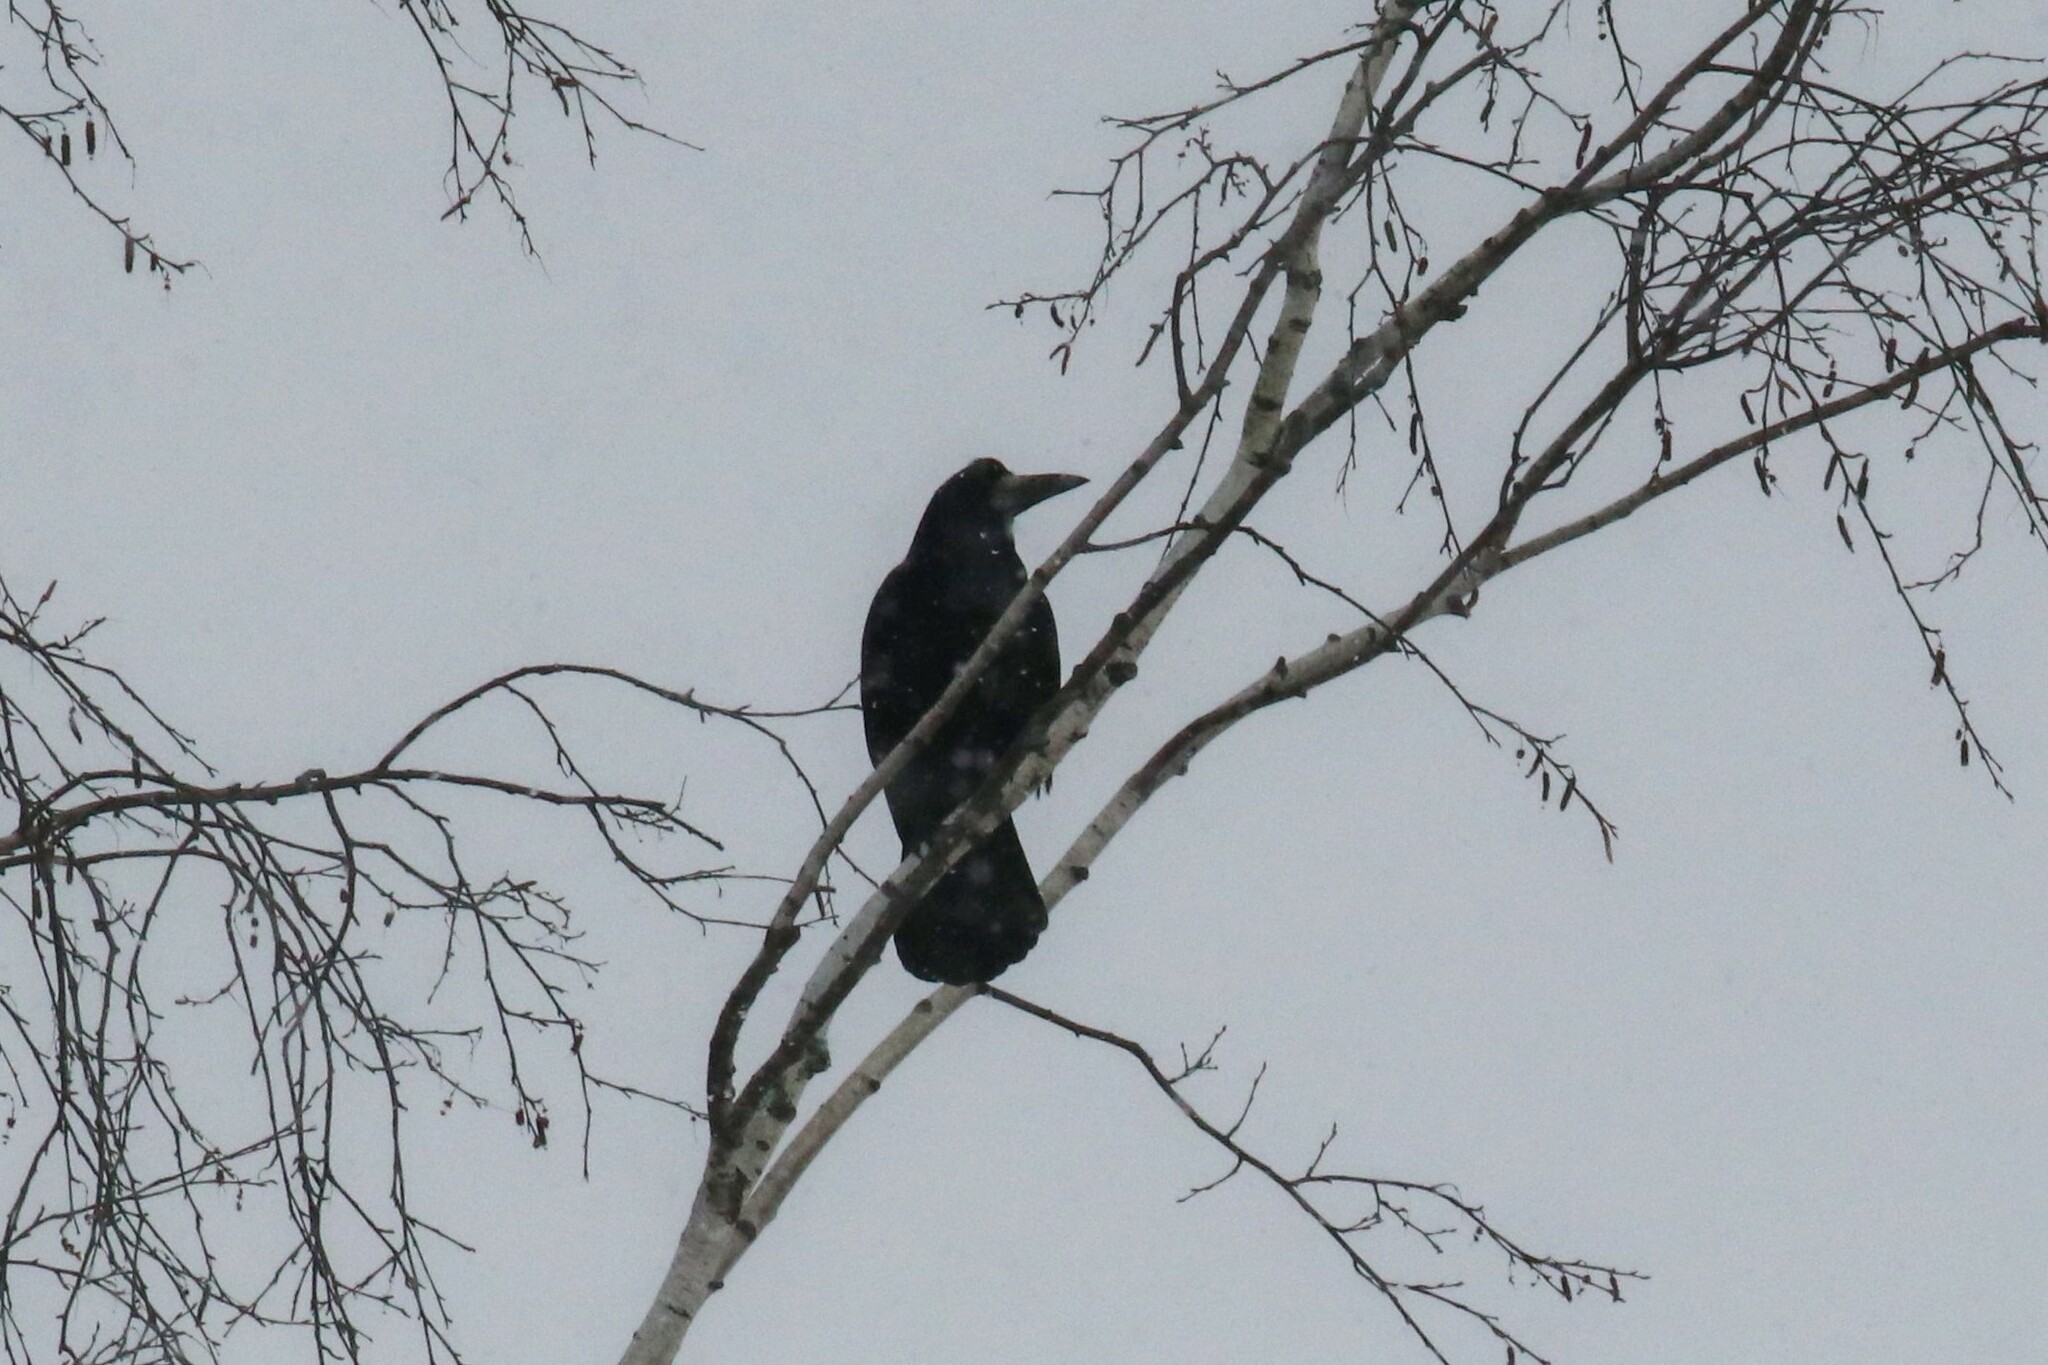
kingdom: Animalia
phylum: Chordata
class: Aves
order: Passeriformes
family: Corvidae
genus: Corvus
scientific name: Corvus frugilegus
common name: Rook
